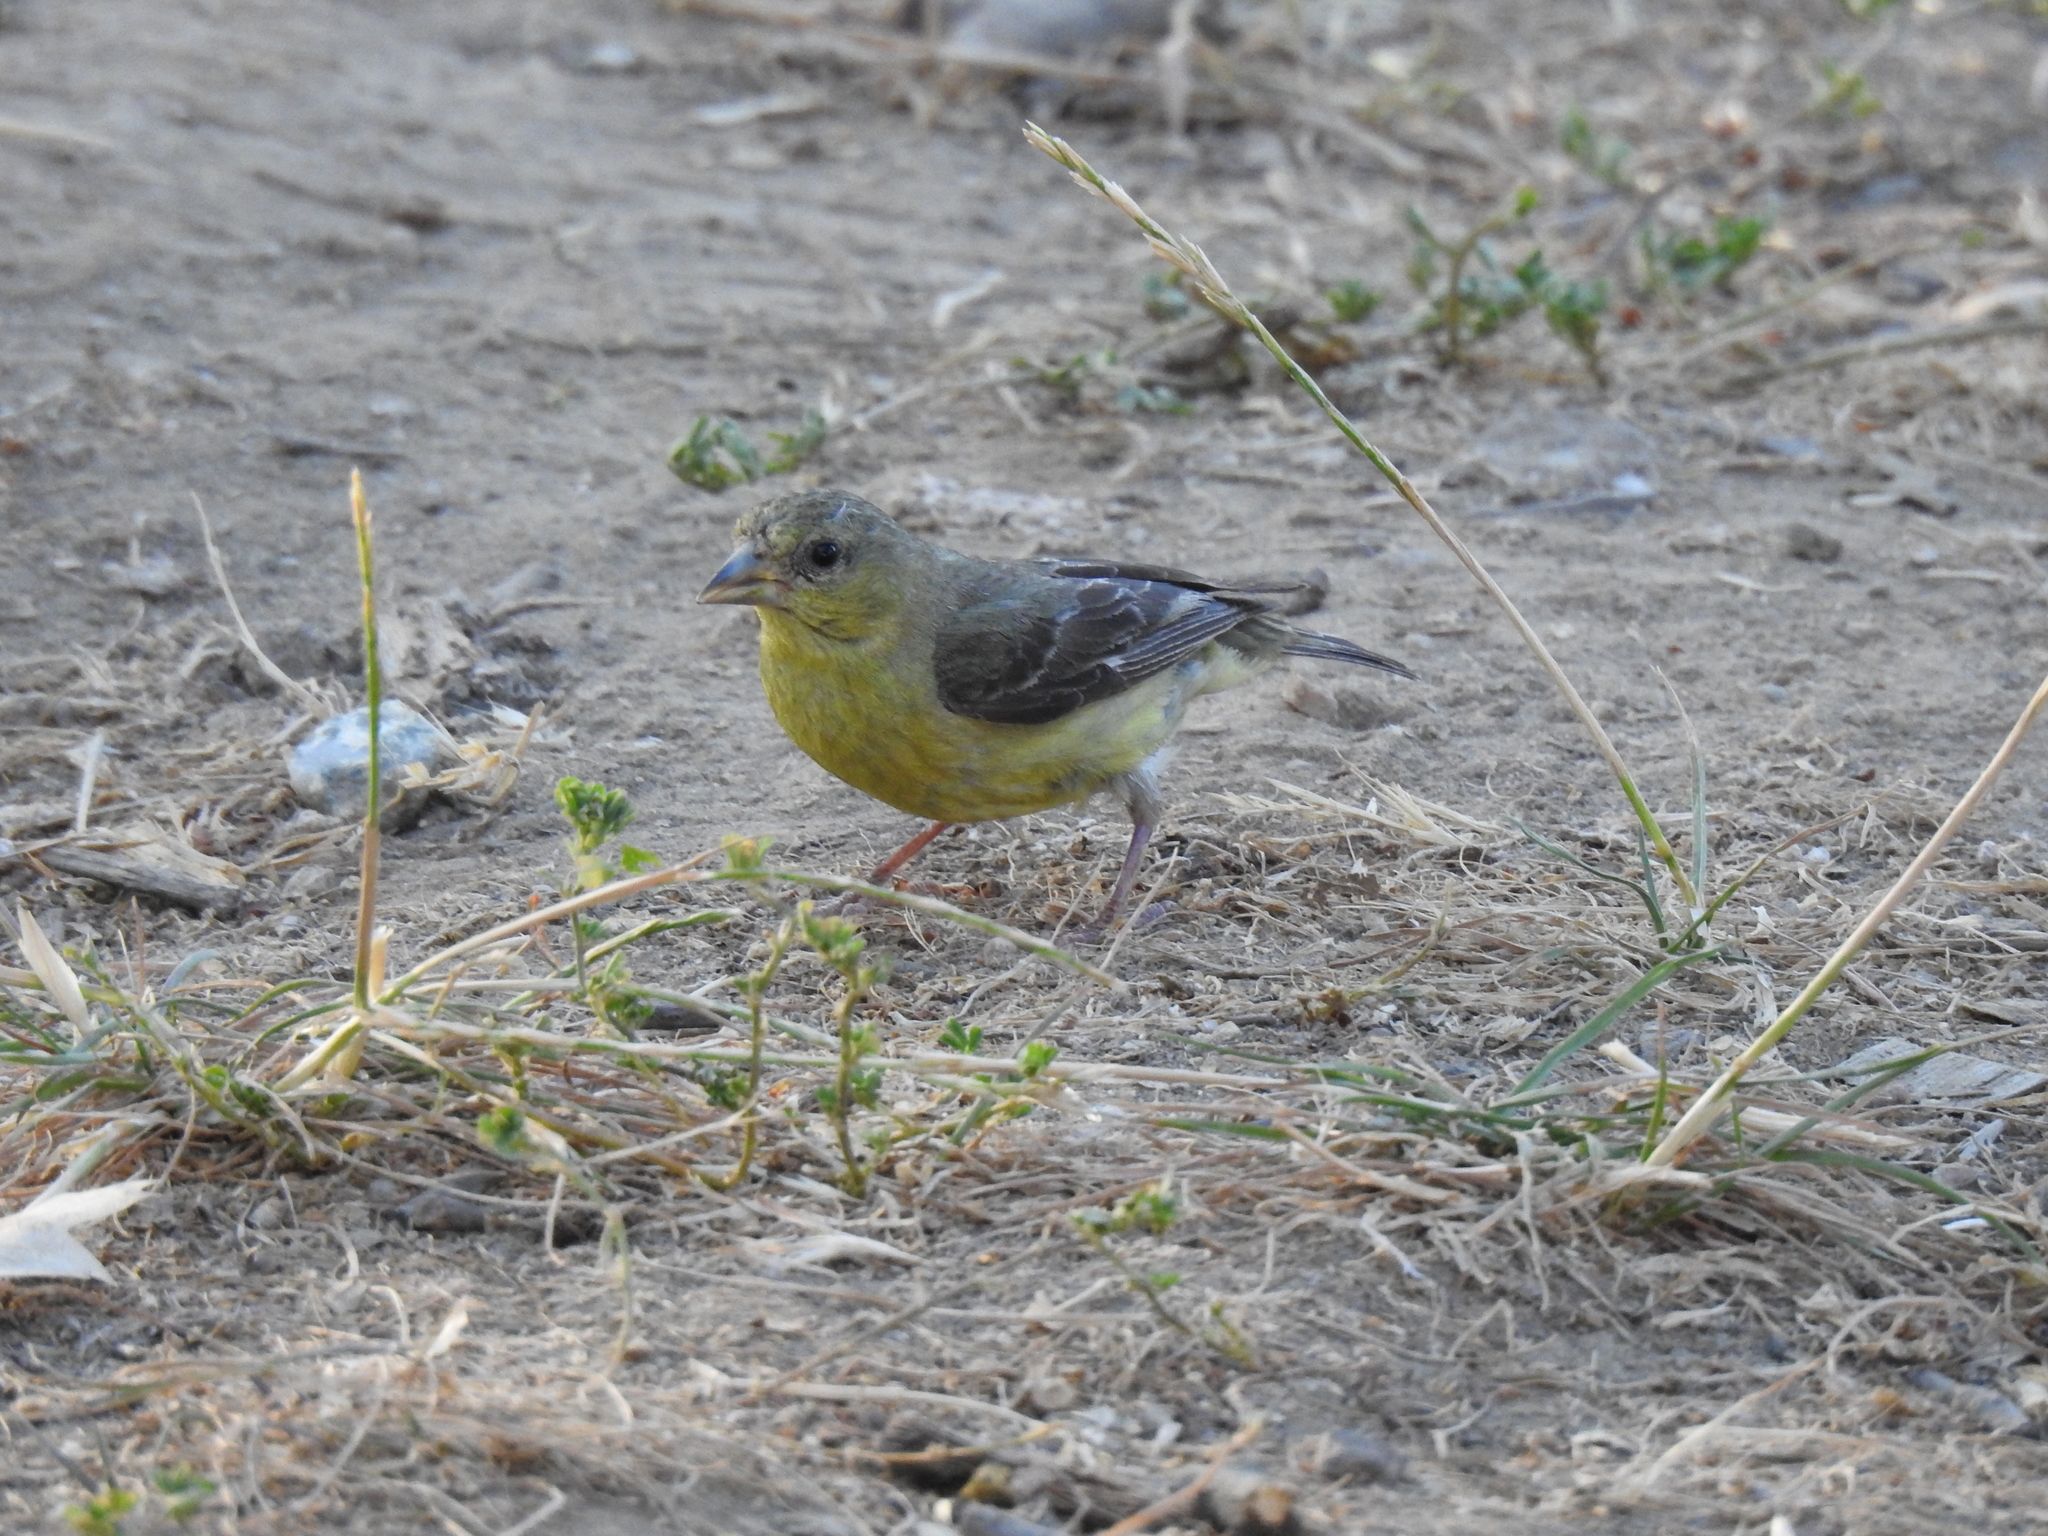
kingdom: Animalia
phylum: Chordata
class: Aves
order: Passeriformes
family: Fringillidae
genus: Spinus
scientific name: Spinus psaltria
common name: Lesser goldfinch
